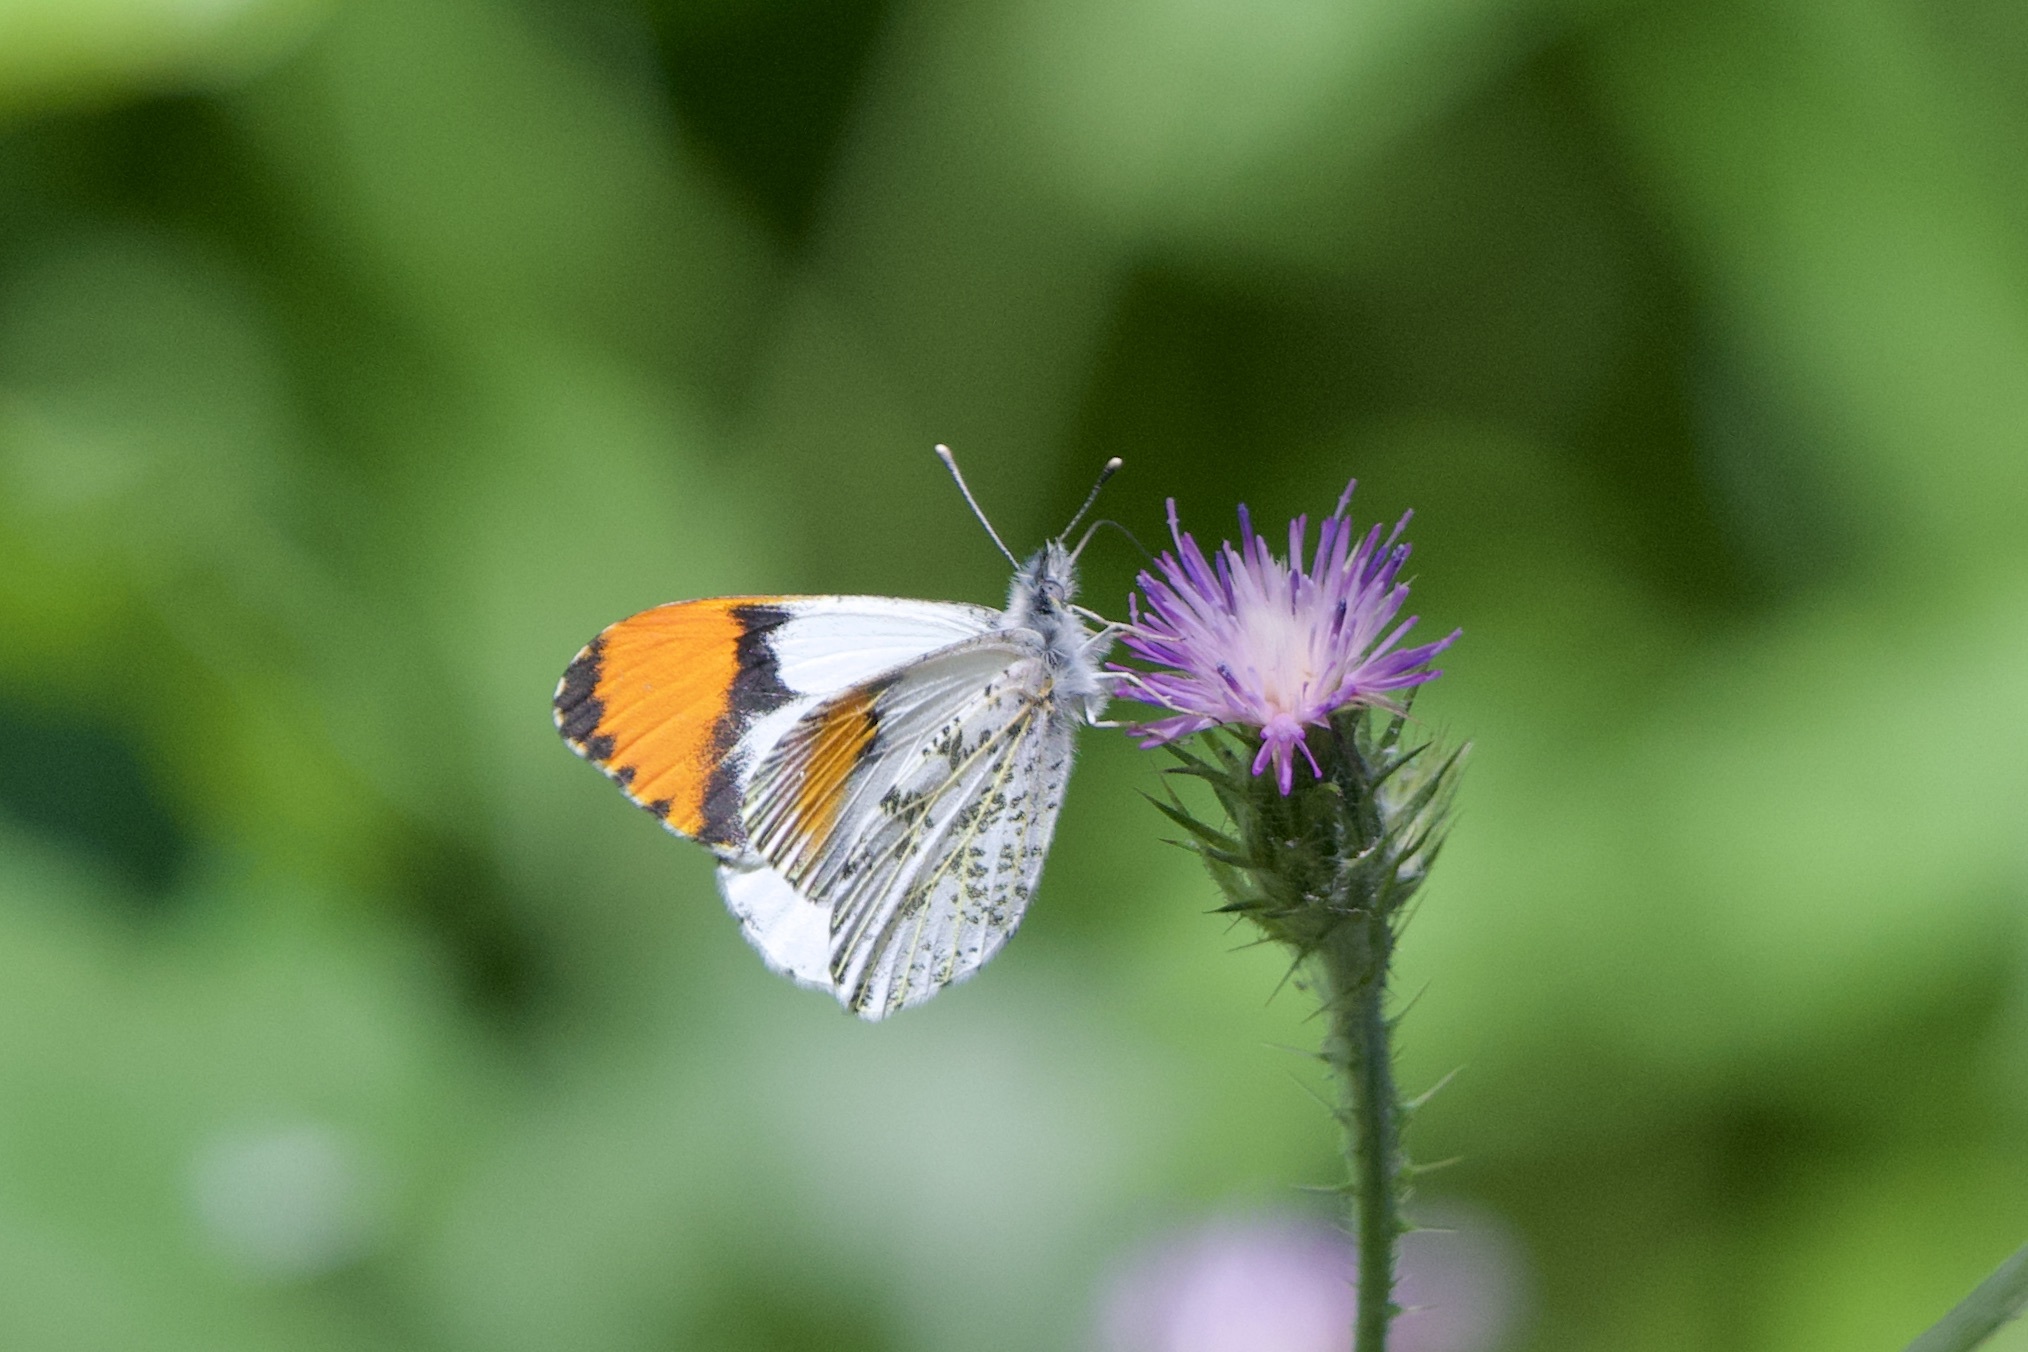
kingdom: Animalia
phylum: Arthropoda
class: Insecta
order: Lepidoptera
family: Pieridae
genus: Anthocharis
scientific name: Anthocharis sara
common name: Sara's orangetip
